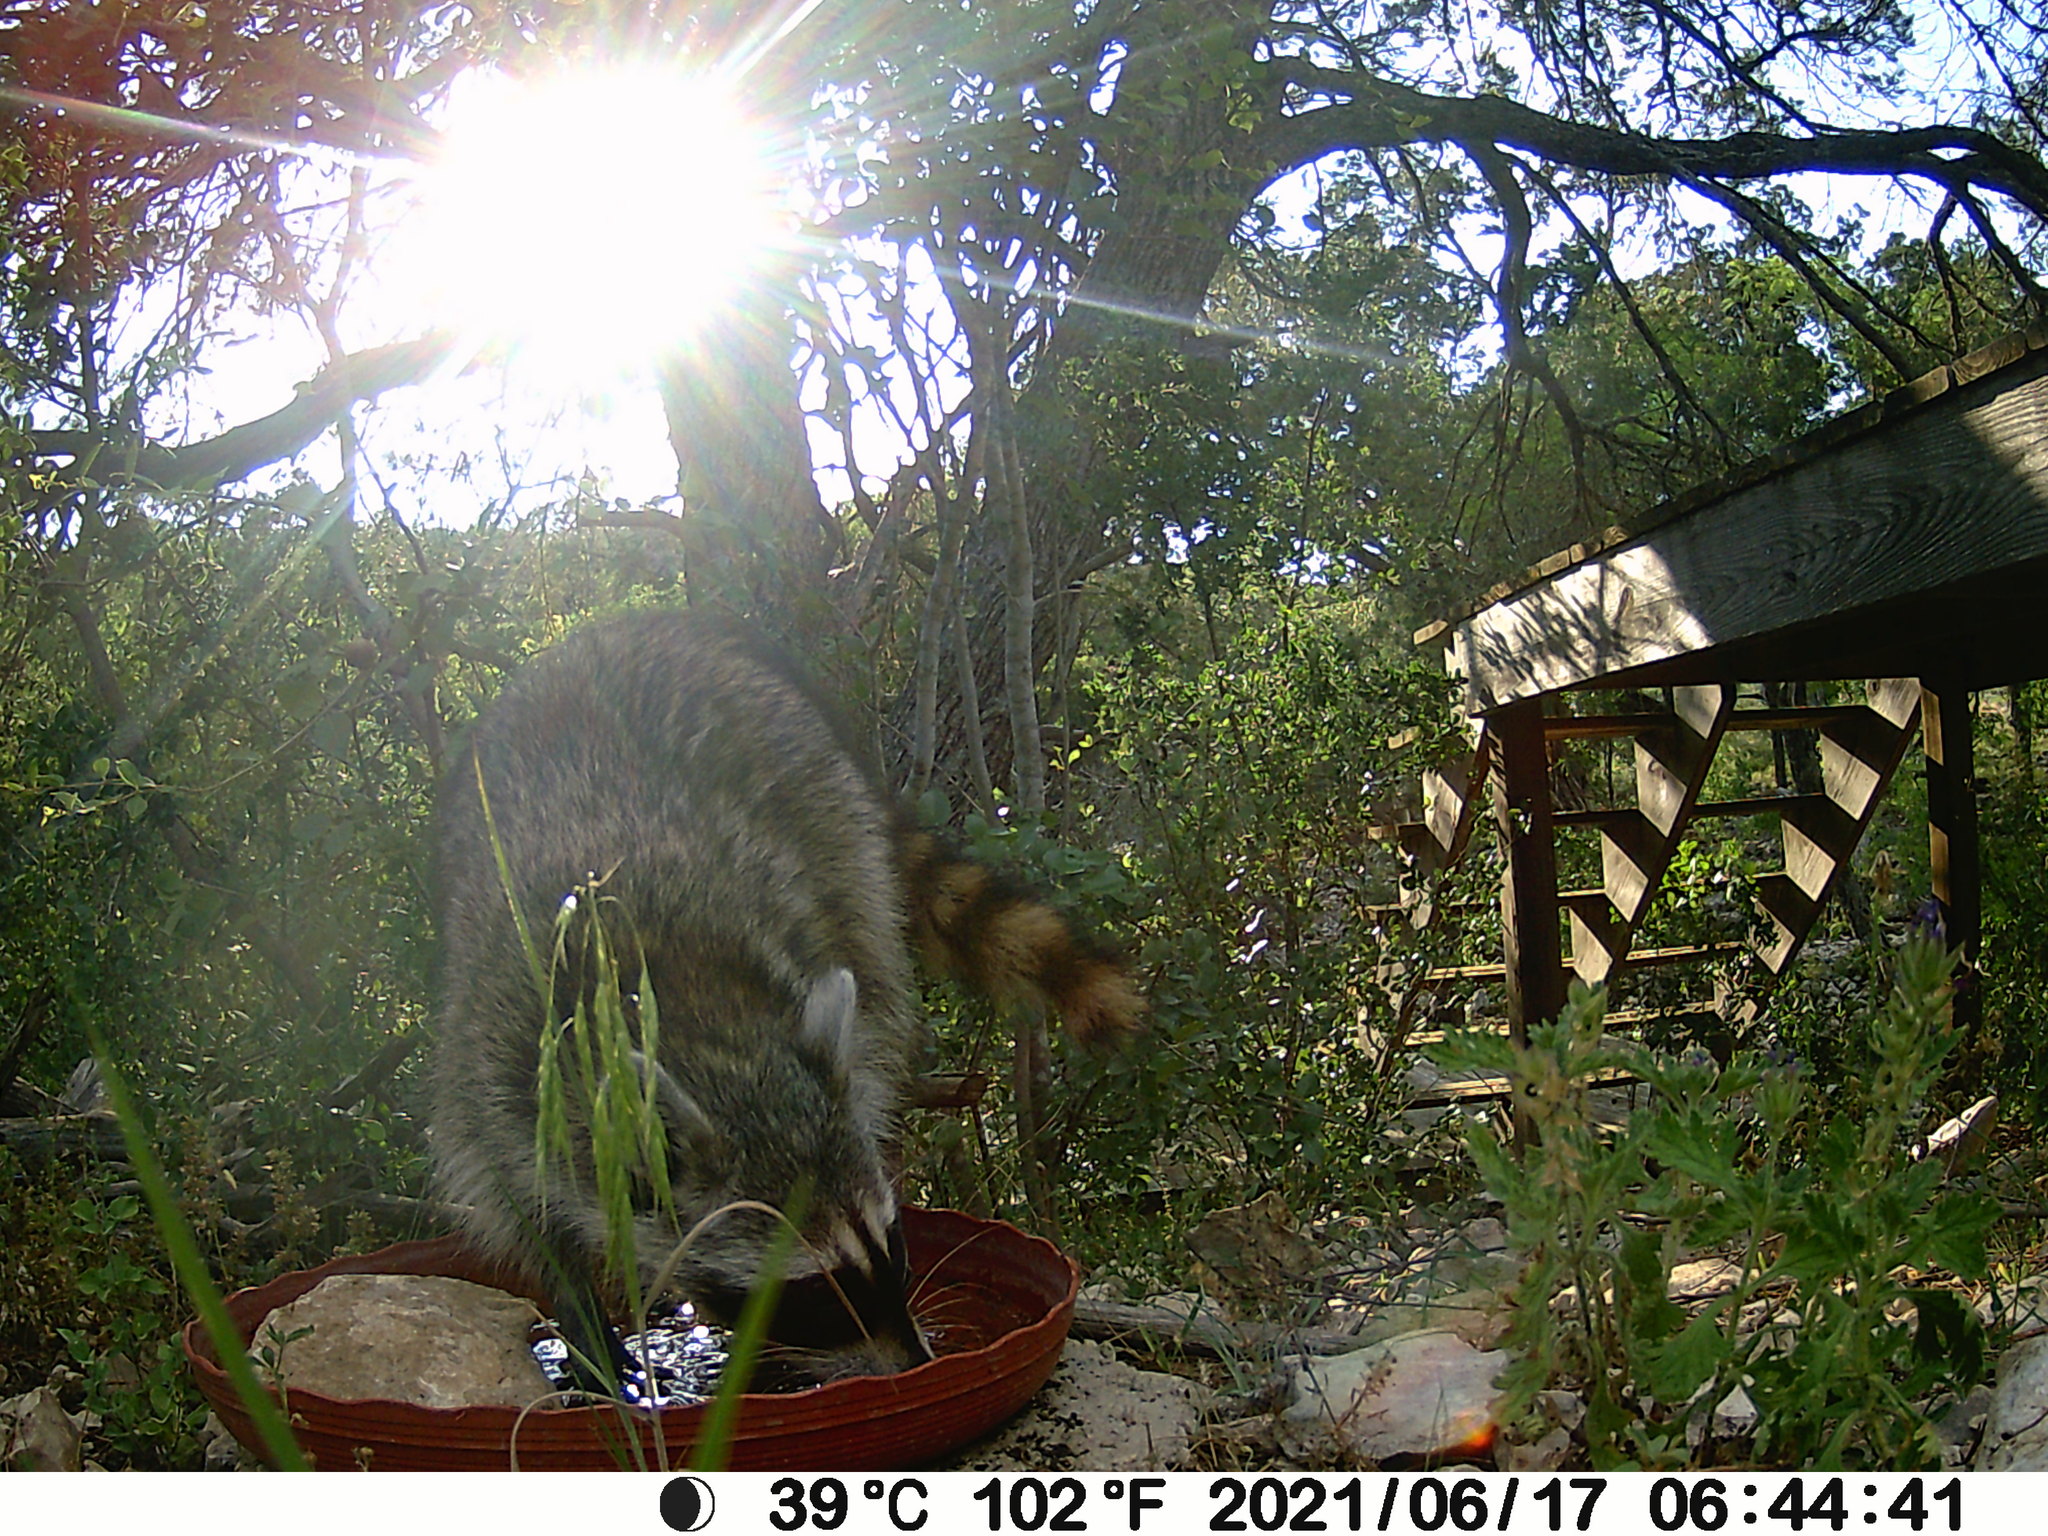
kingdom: Animalia
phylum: Chordata
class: Mammalia
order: Carnivora
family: Procyonidae
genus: Procyon
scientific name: Procyon lotor
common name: Raccoon
